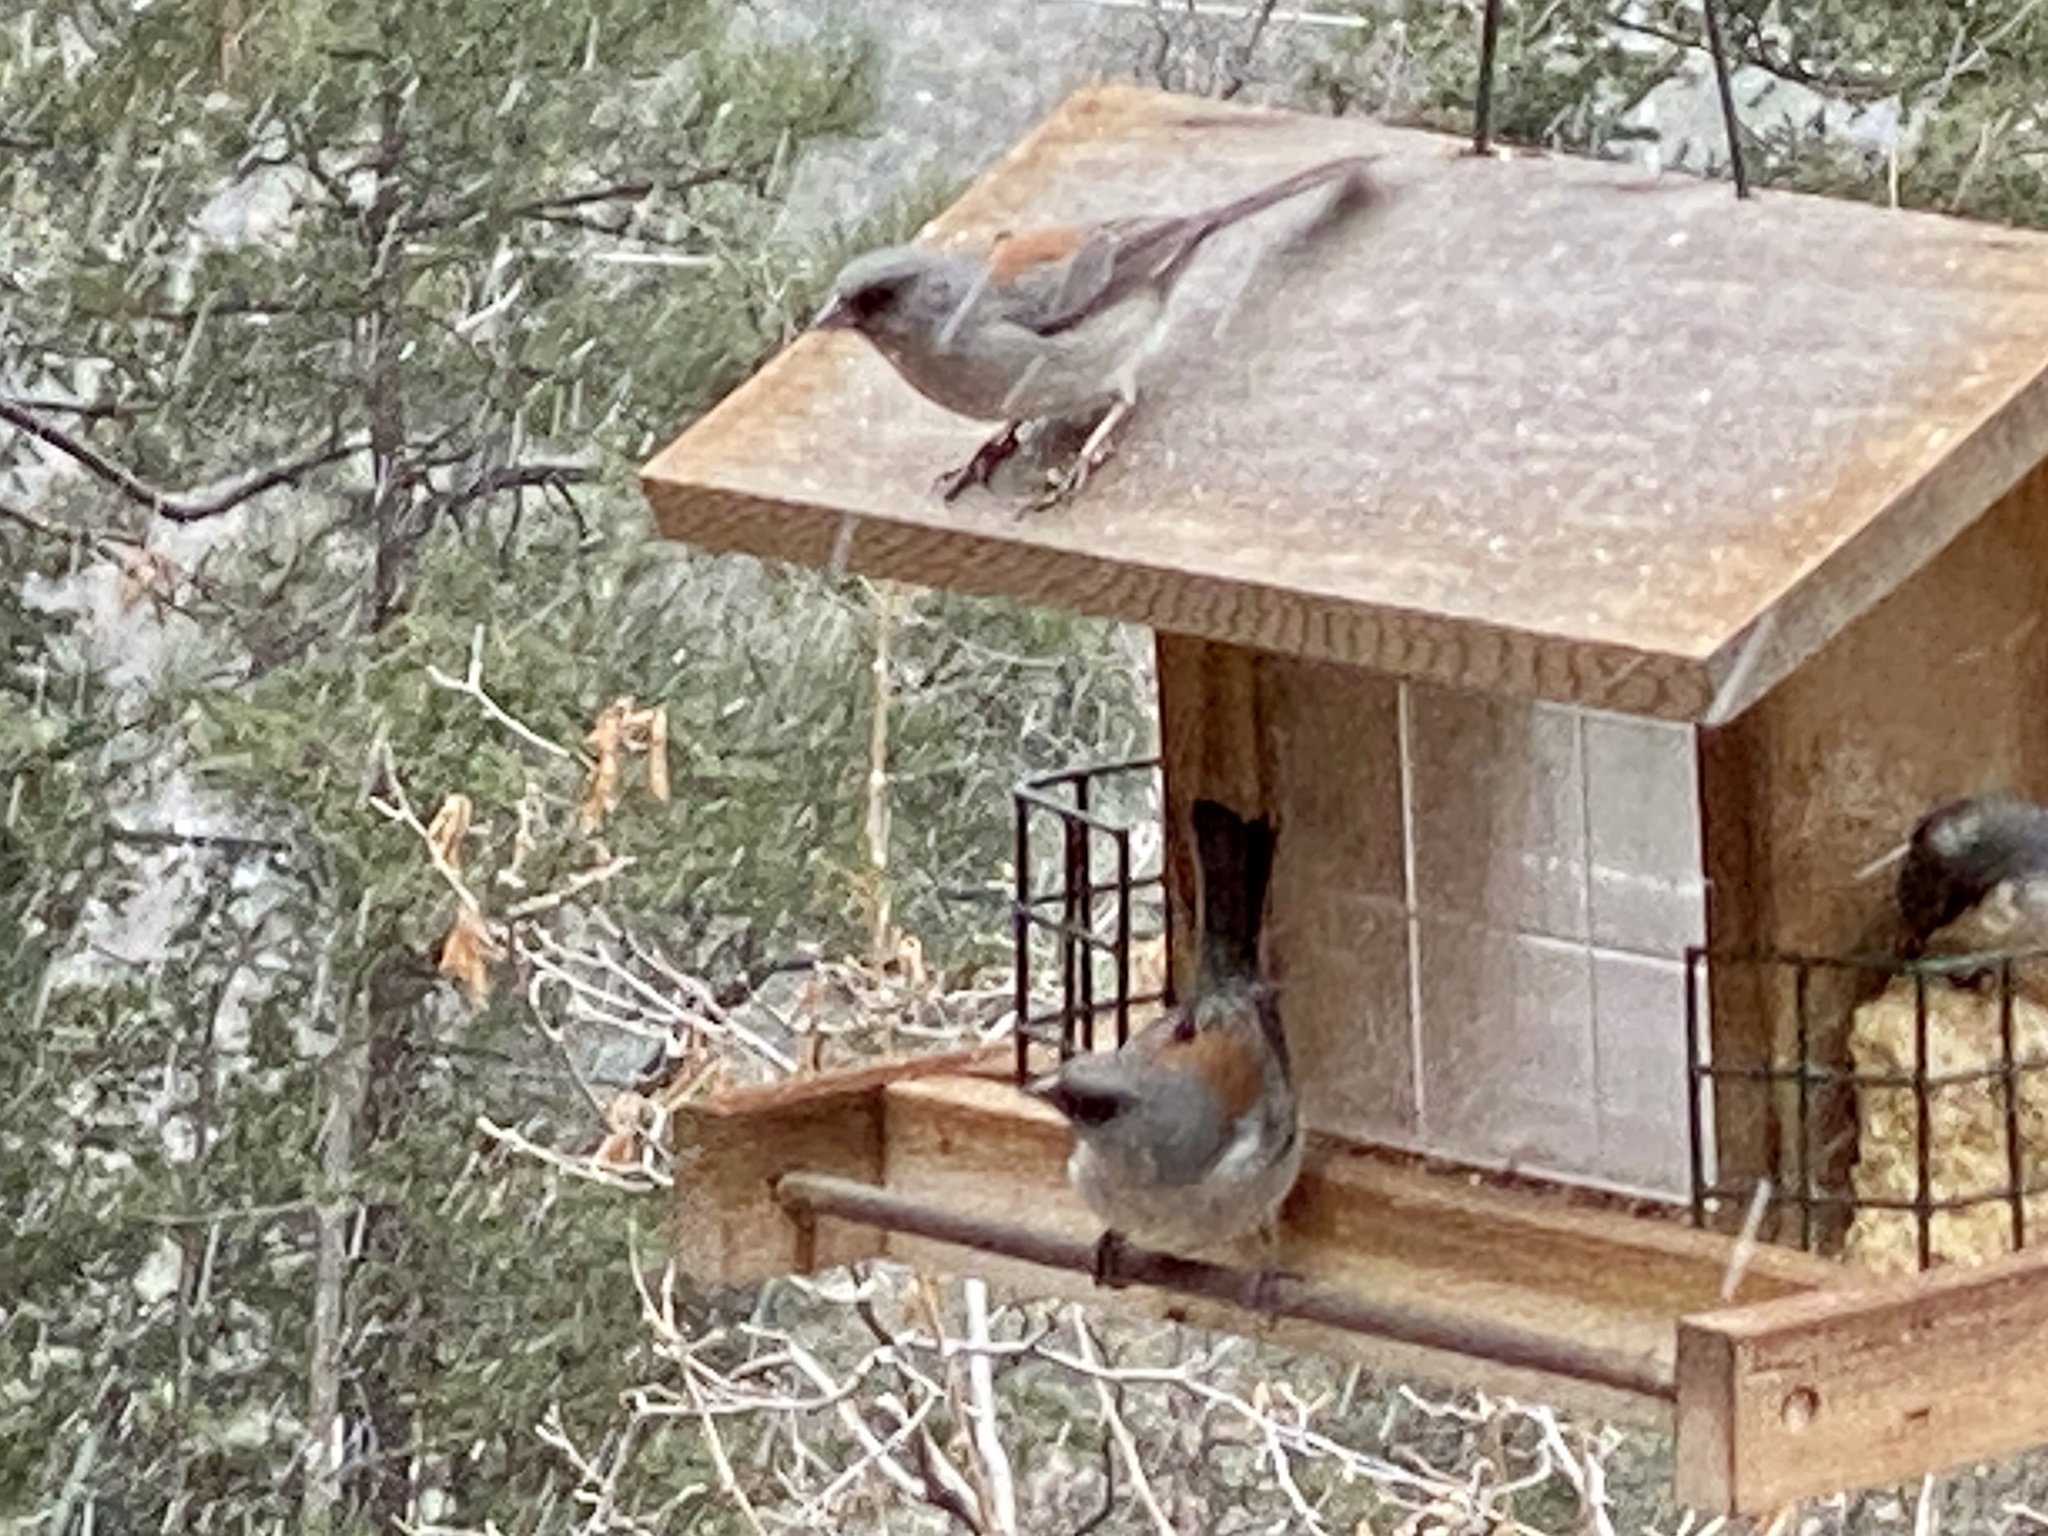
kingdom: Animalia
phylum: Chordata
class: Aves
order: Passeriformes
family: Passerellidae
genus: Junco
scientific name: Junco hyemalis
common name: Dark-eyed junco
